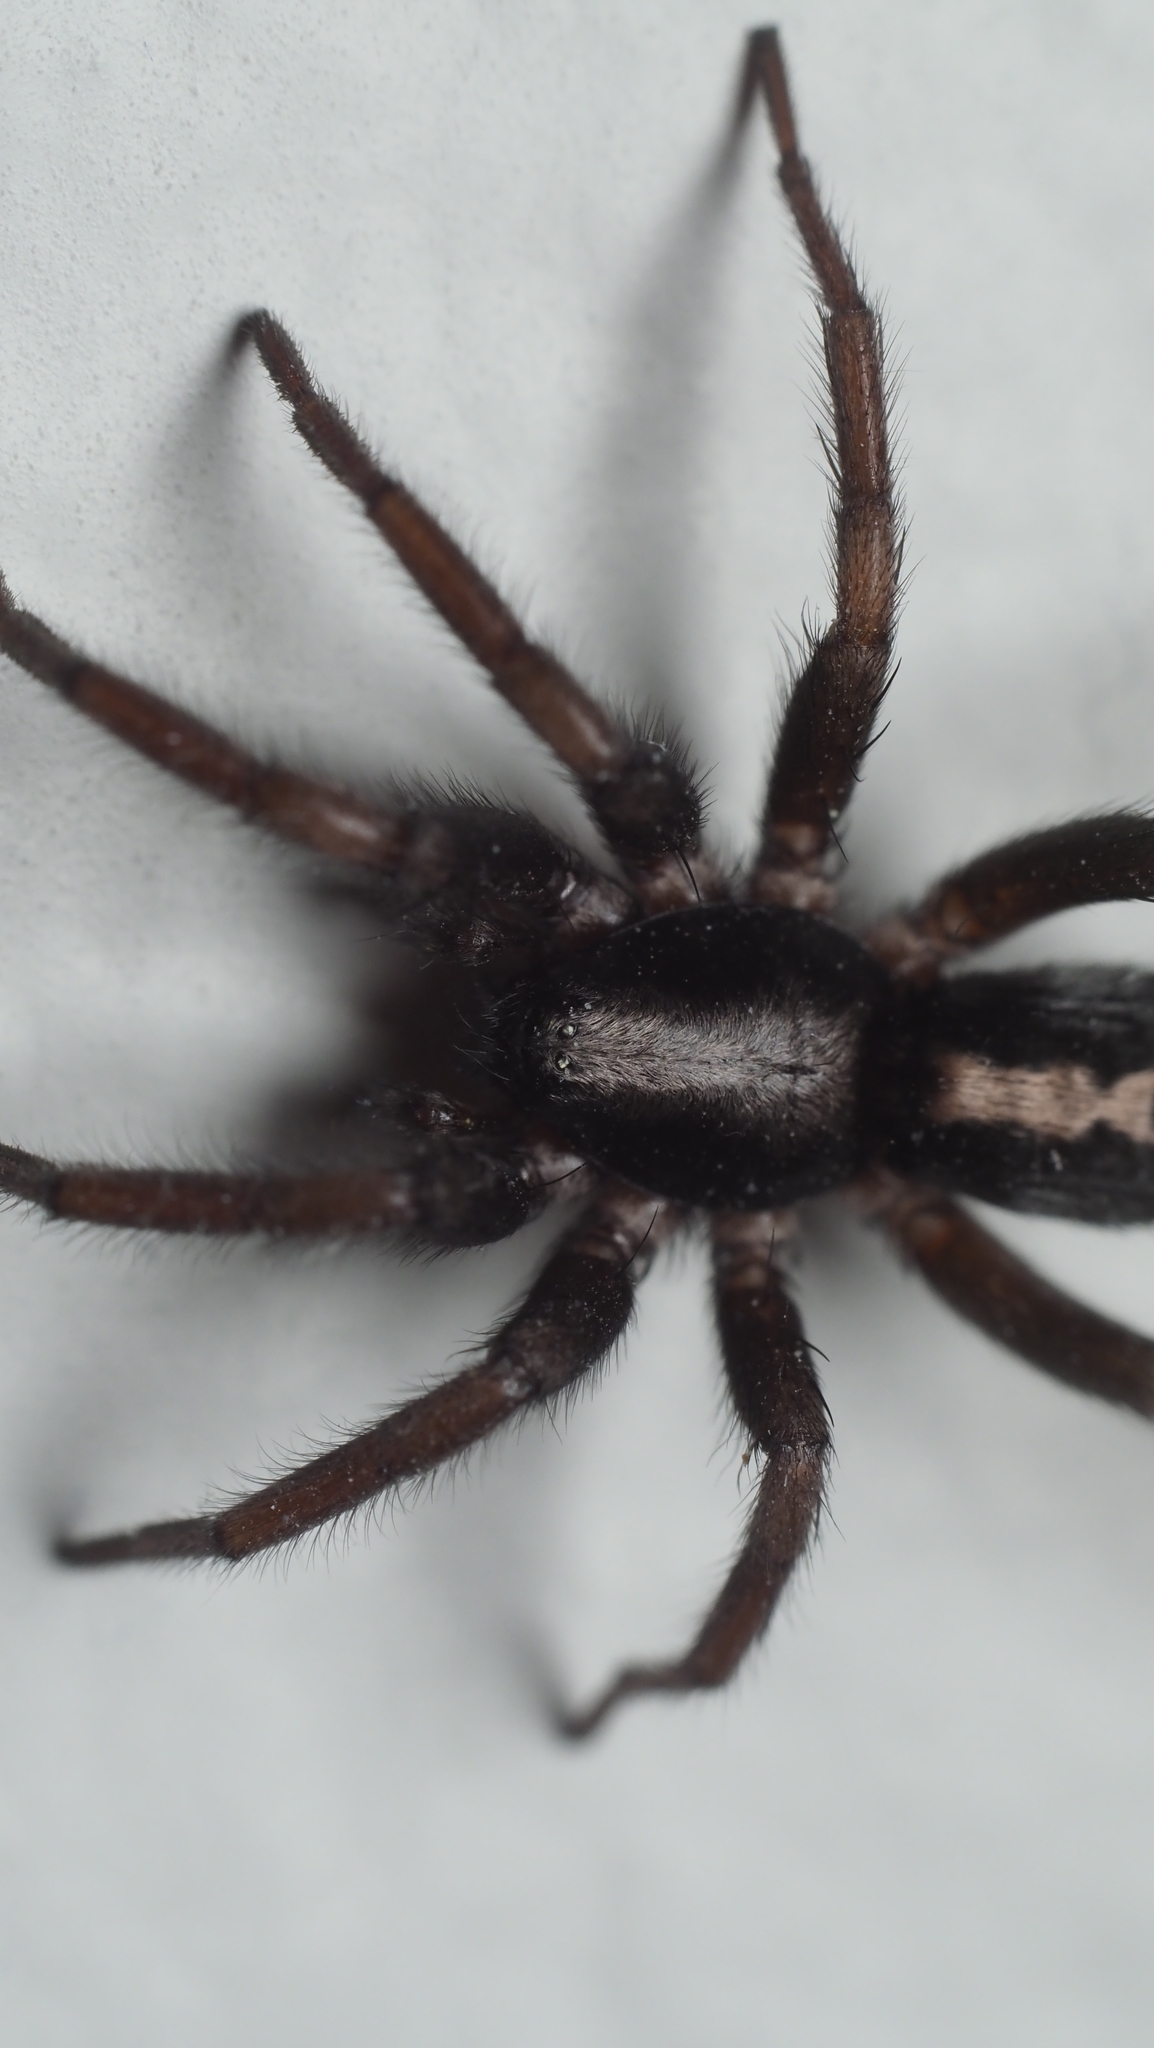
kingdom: Animalia
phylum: Arthropoda
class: Arachnida
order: Araneae
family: Gnaphosidae
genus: Herpyllus
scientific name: Herpyllus ecclesiasticus
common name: Eastern parson spider
